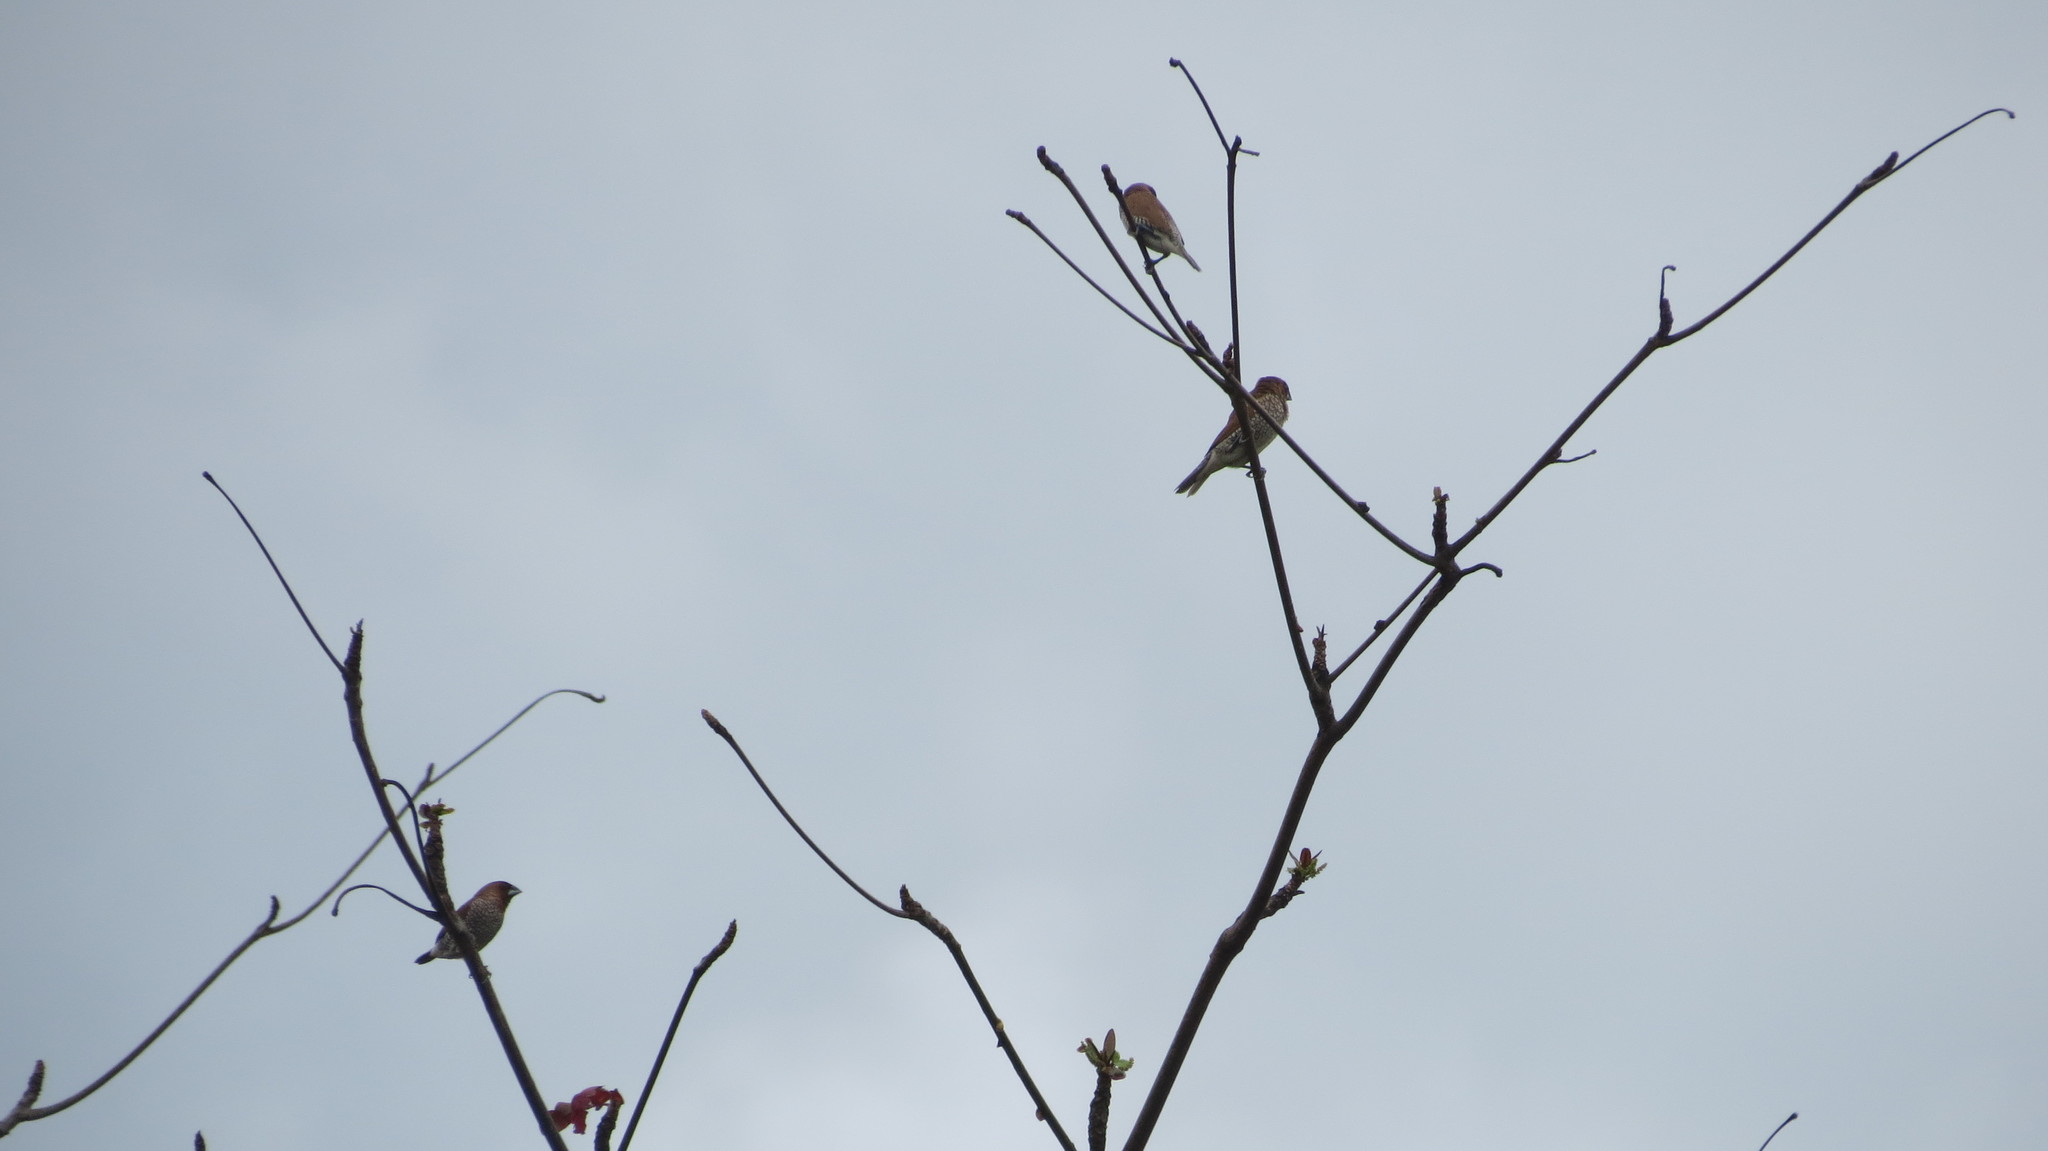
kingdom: Animalia
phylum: Chordata
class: Aves
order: Passeriformes
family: Estrildidae
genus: Lonchura
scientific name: Lonchura punctulata
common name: Scaly-breasted munia
